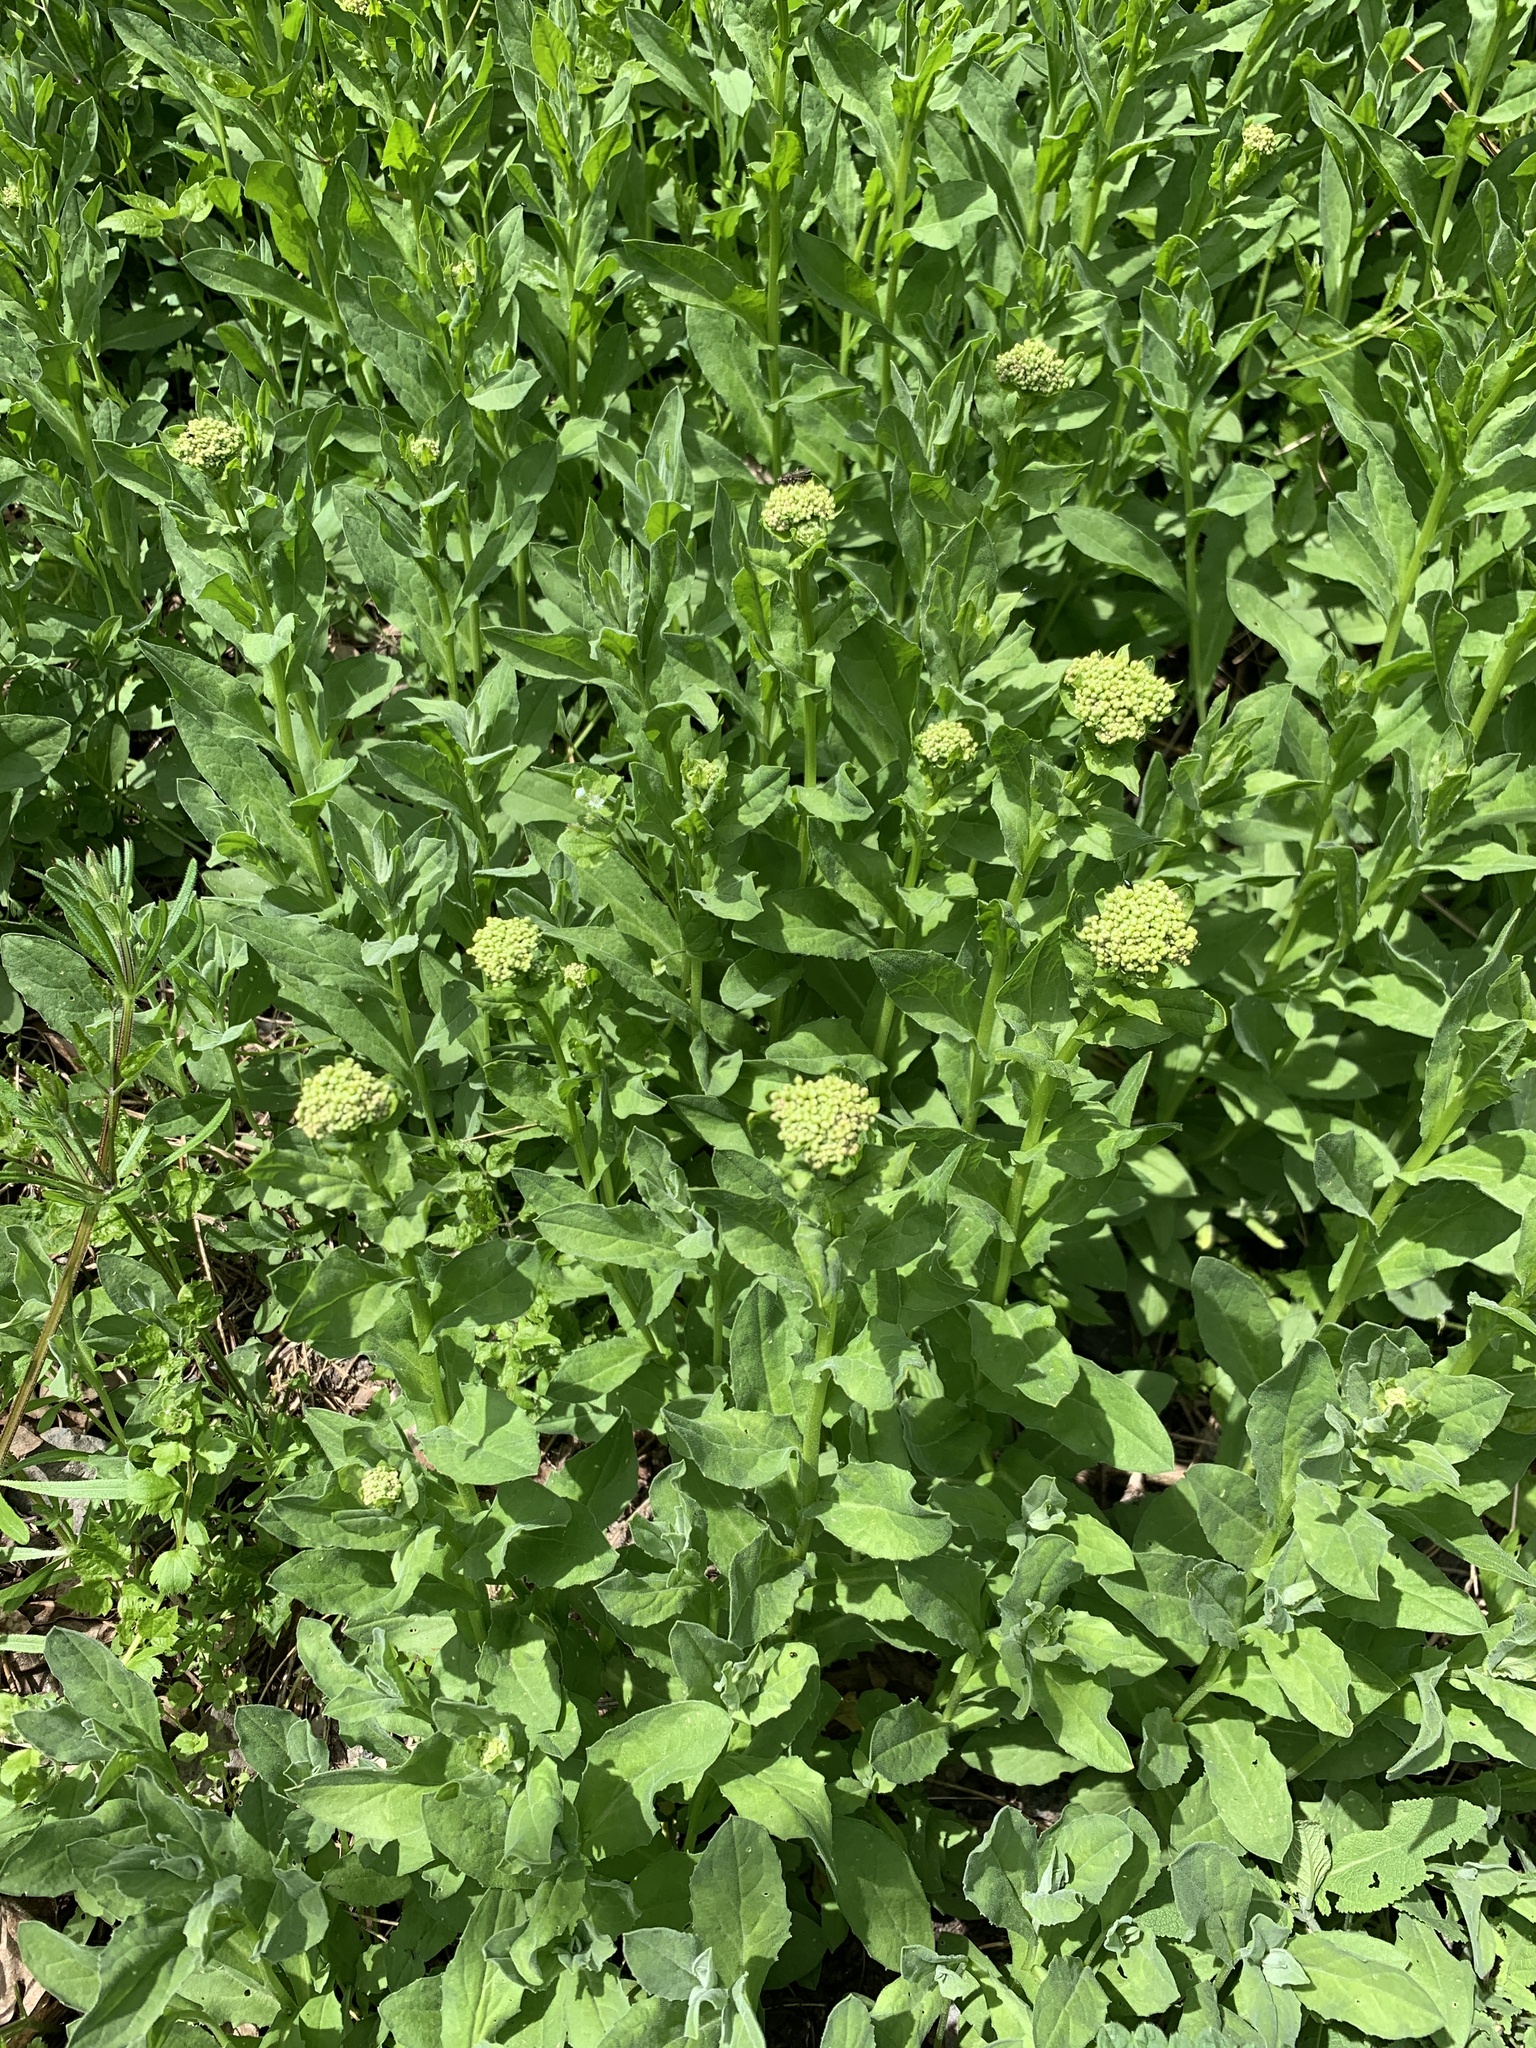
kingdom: Plantae
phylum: Tracheophyta
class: Magnoliopsida
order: Brassicales
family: Brassicaceae
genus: Lepidium
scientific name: Lepidium draba
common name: Hoary cress
